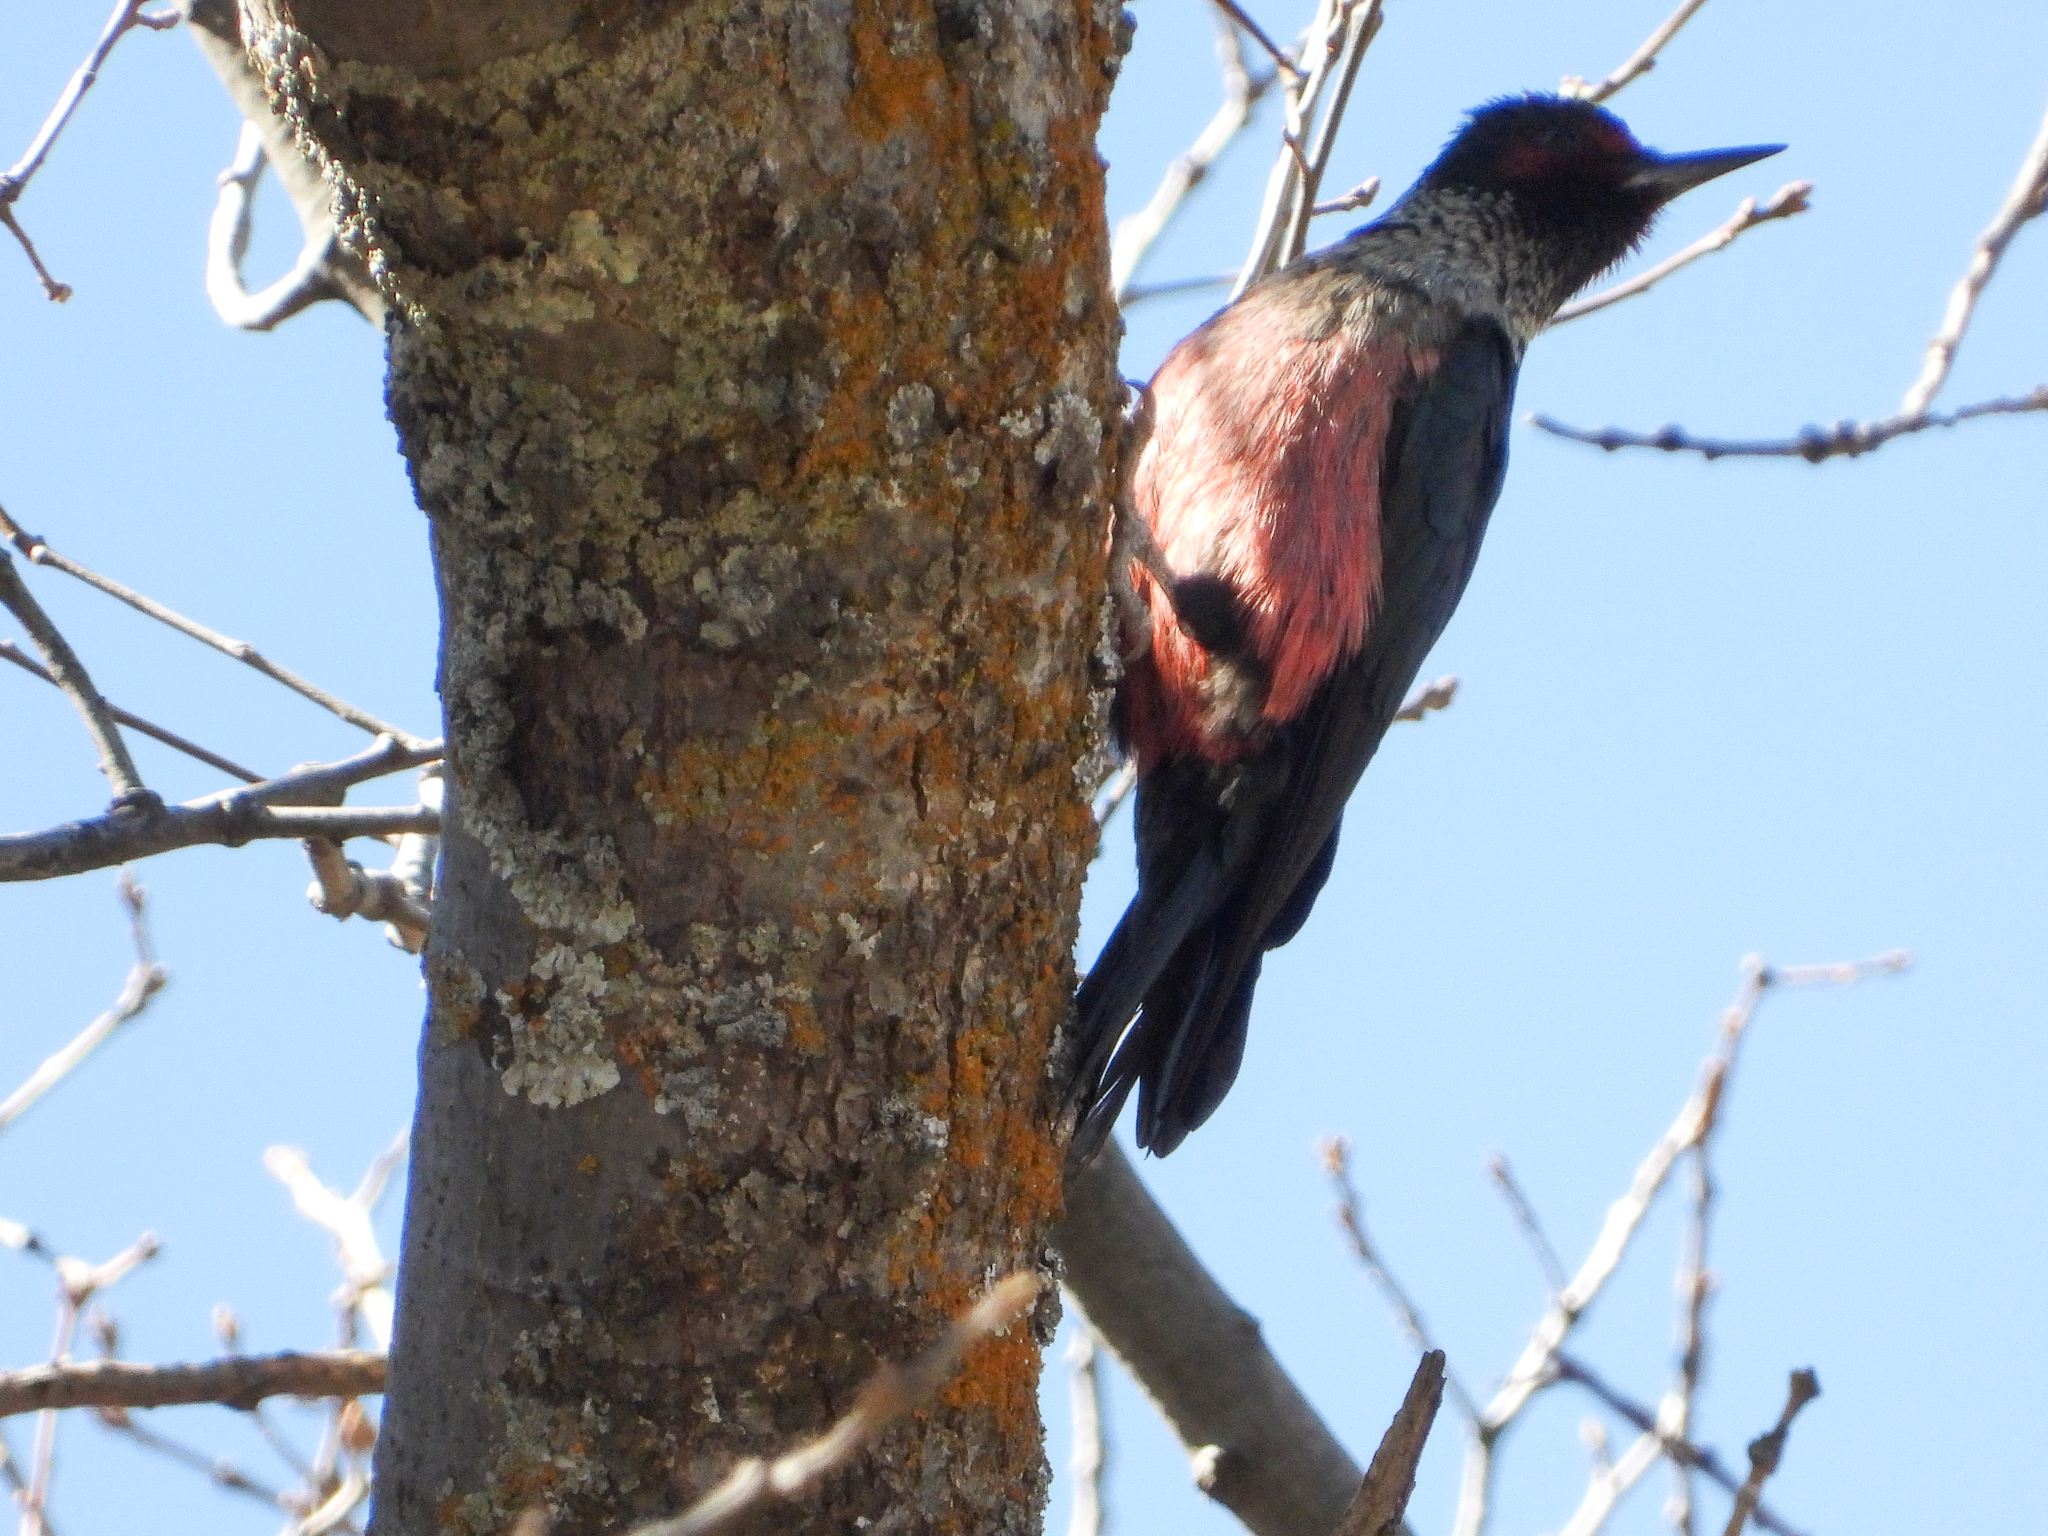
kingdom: Animalia
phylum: Chordata
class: Aves
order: Piciformes
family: Picidae
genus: Melanerpes
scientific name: Melanerpes lewis
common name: Lewis's woodpecker
